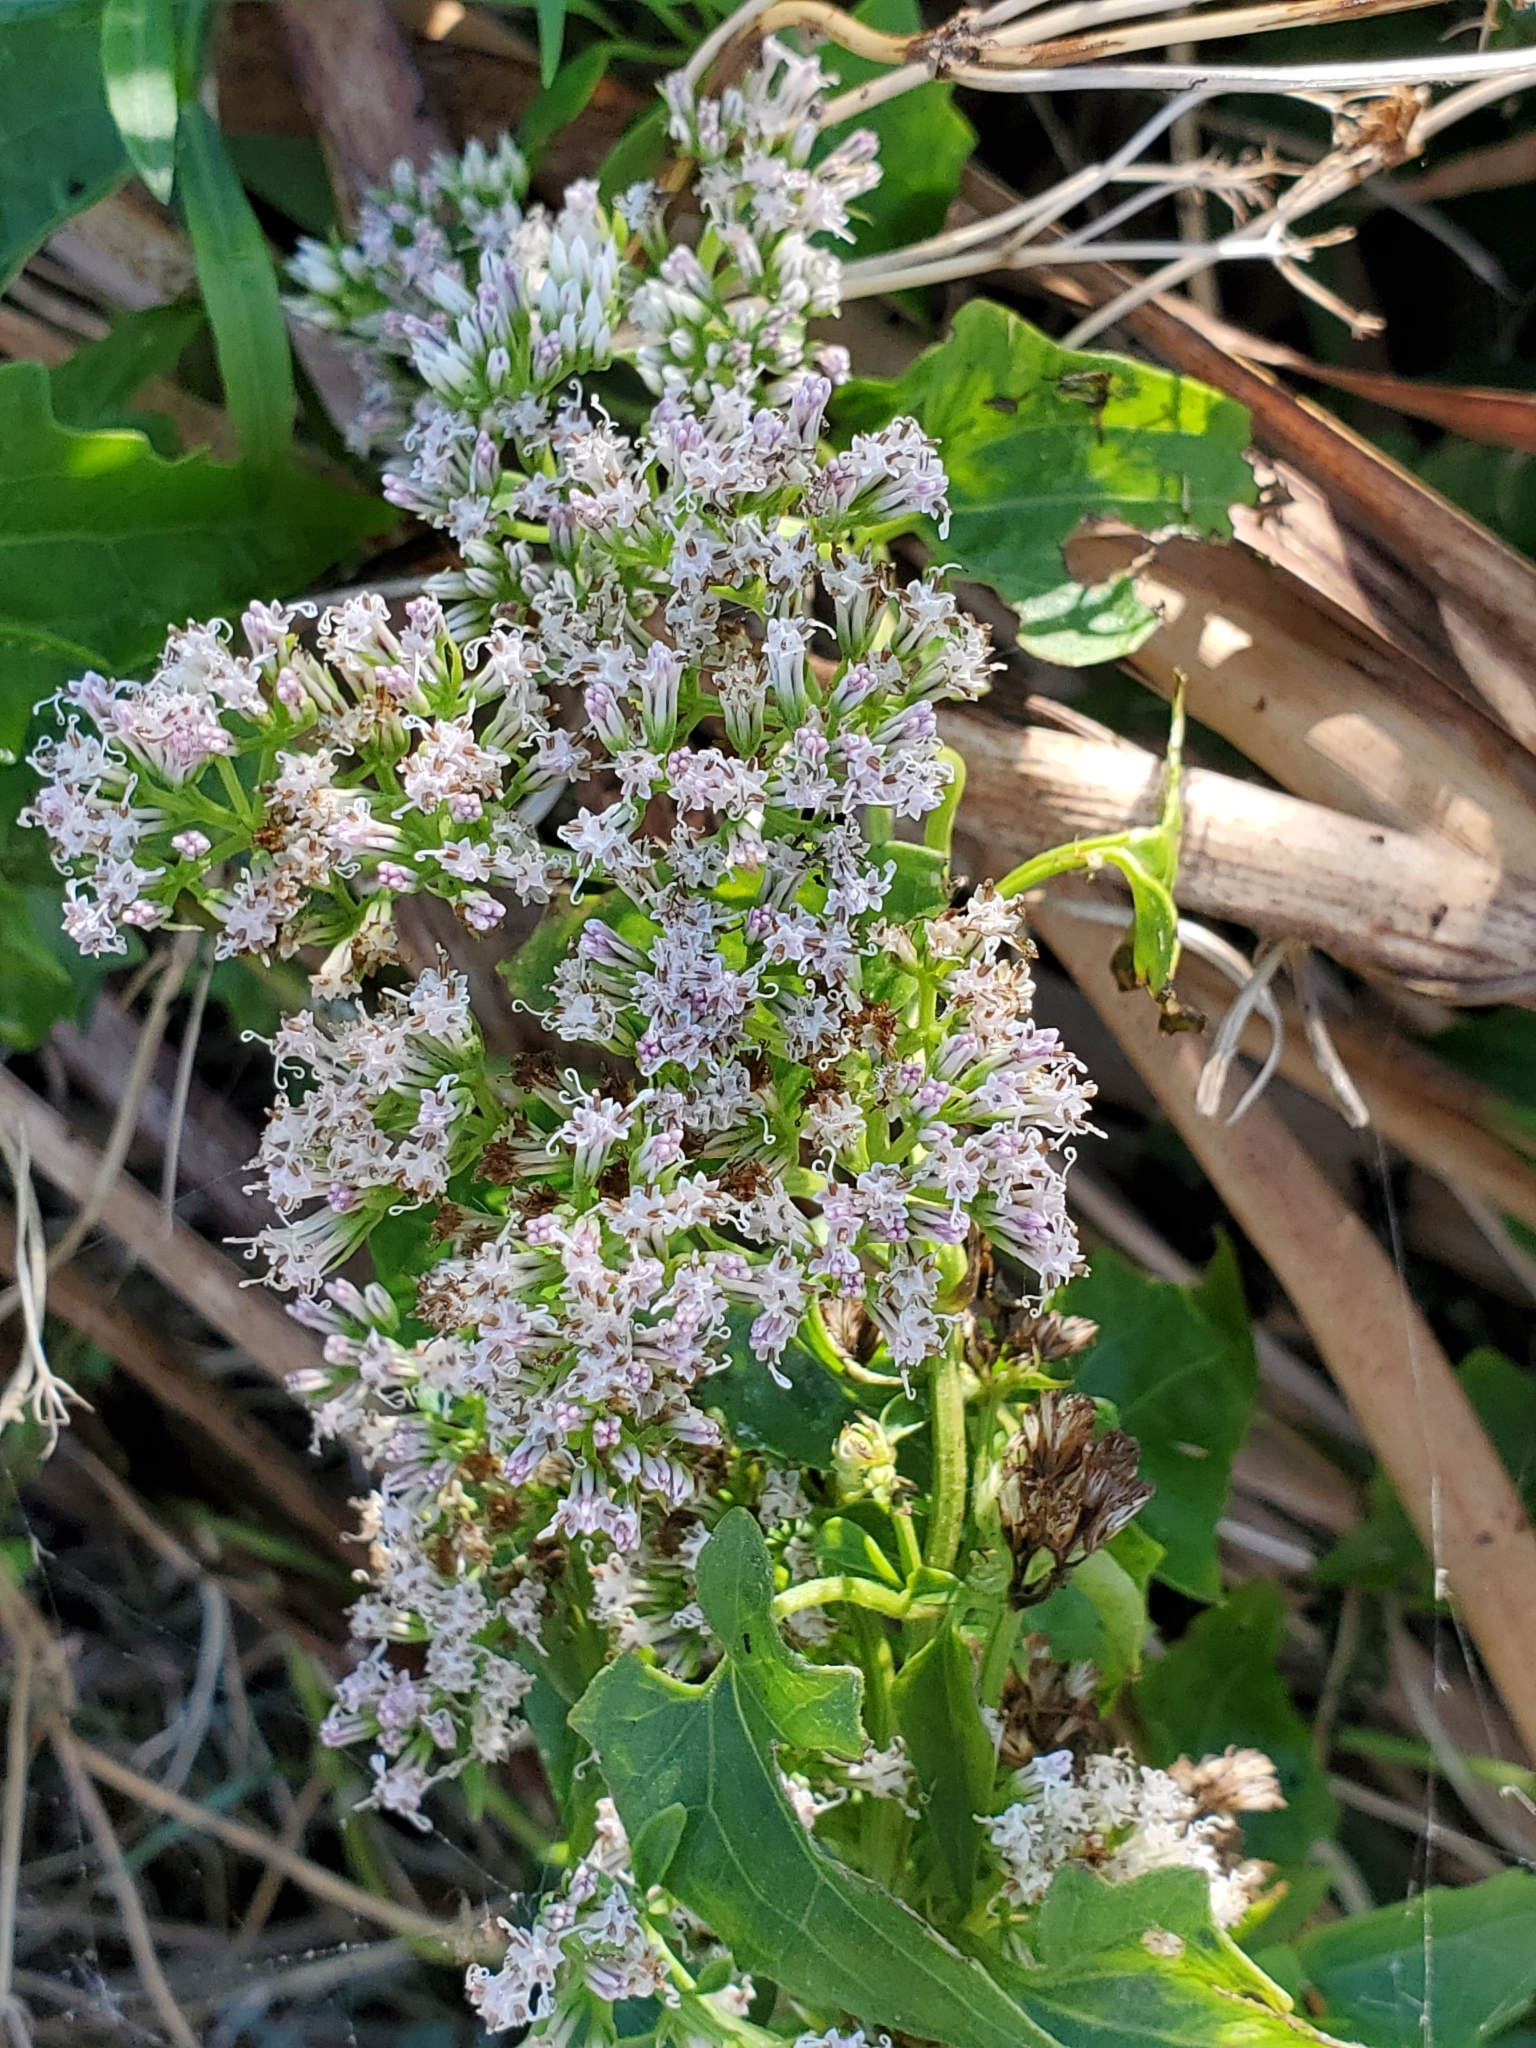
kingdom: Plantae
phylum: Tracheophyta
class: Magnoliopsida
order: Asterales
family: Asteraceae
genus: Mikania
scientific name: Mikania scandens
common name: Climbing hempvine
